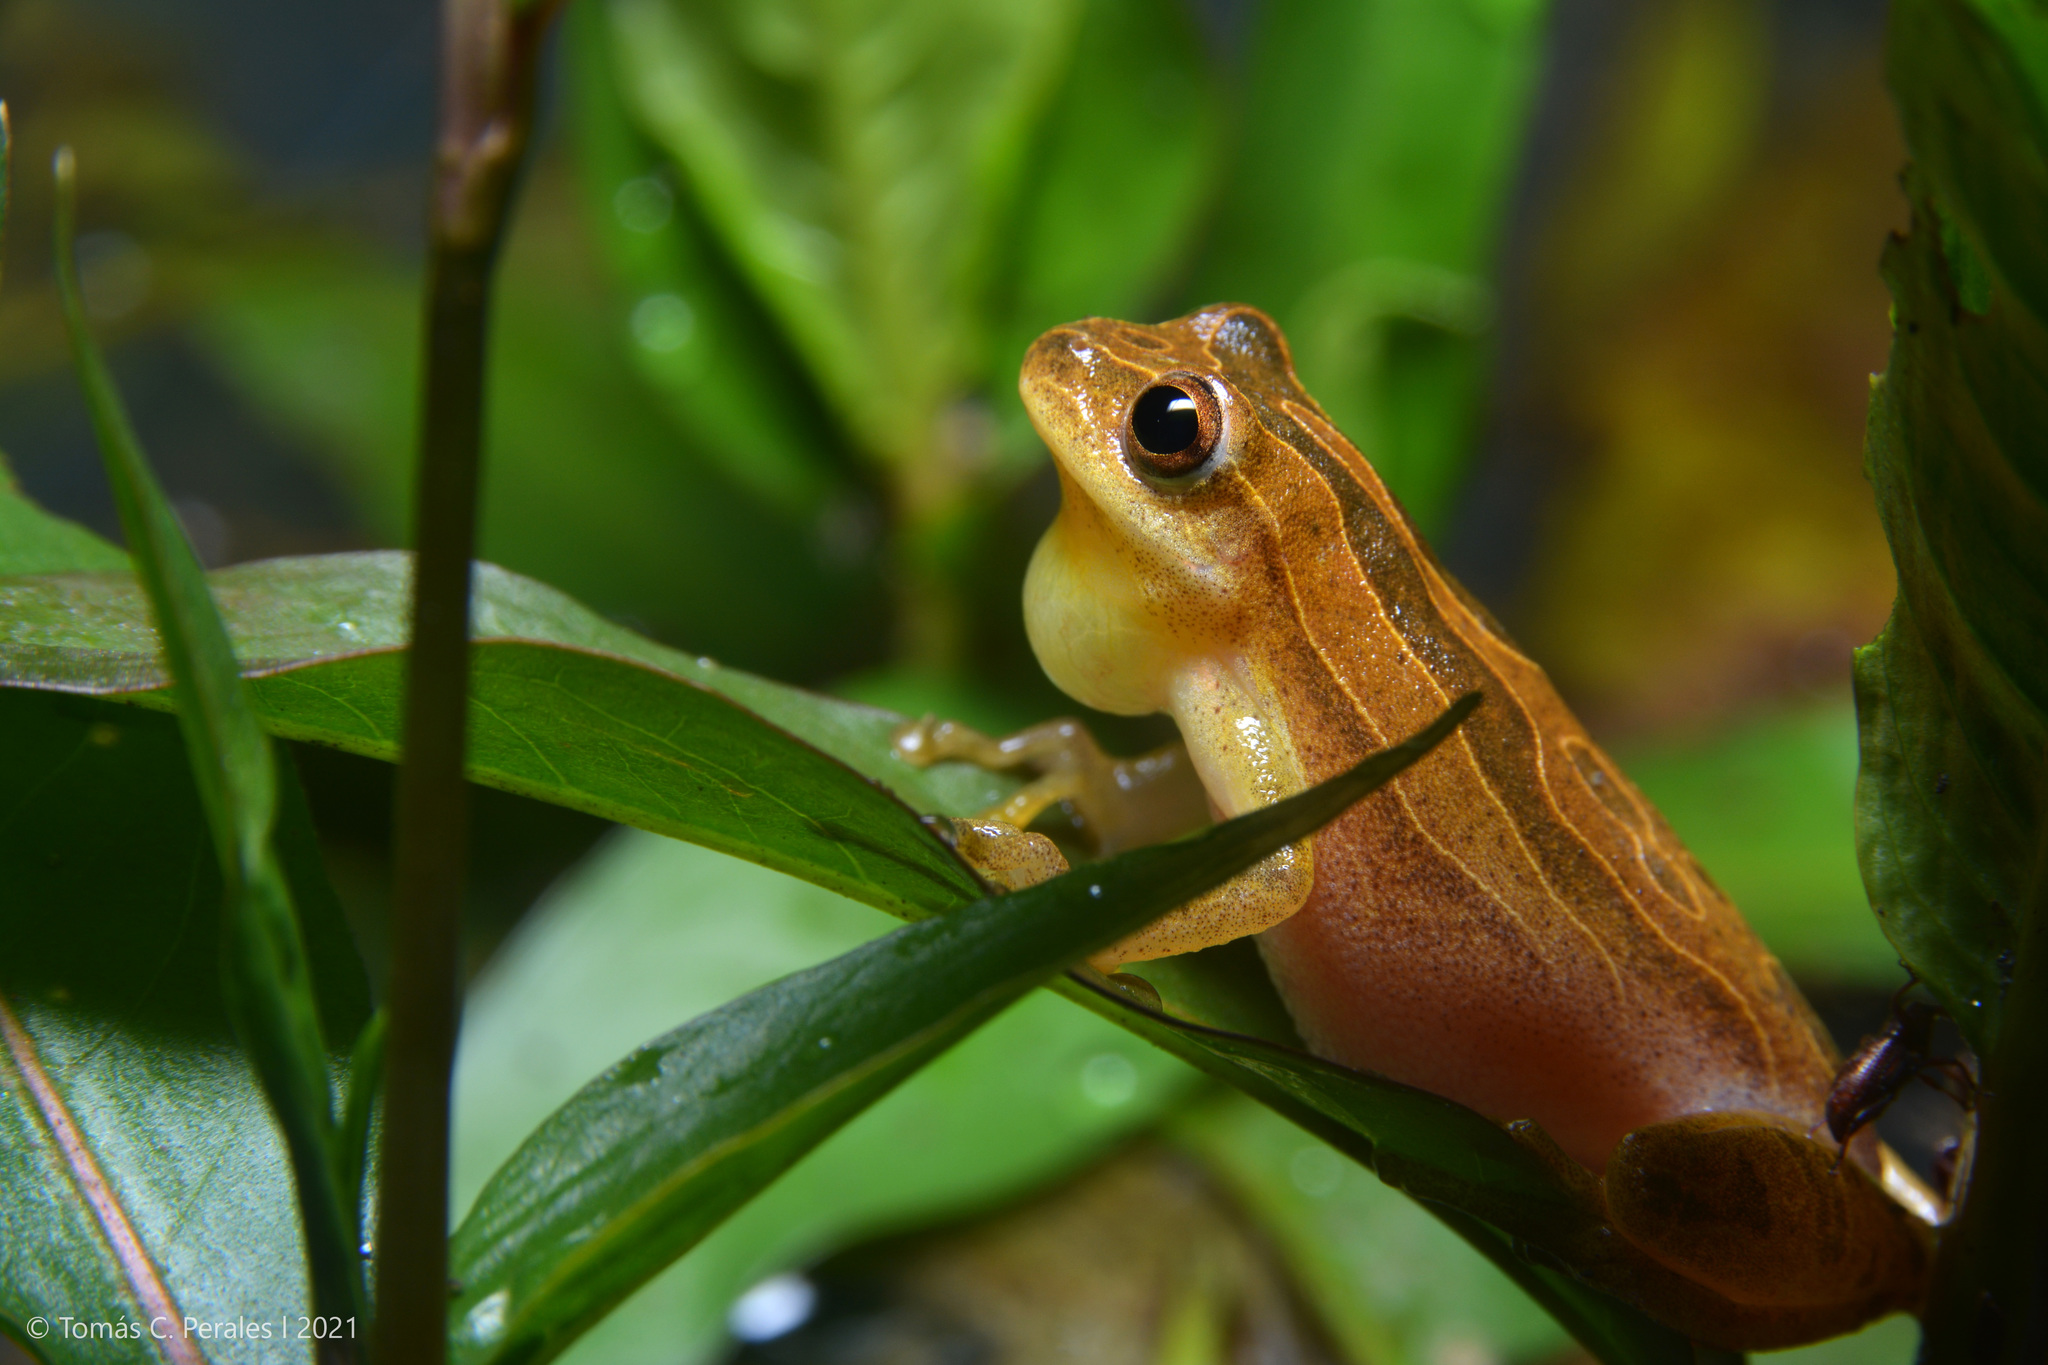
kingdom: Animalia
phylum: Chordata
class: Amphibia
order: Anura
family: Hylidae
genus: Dendropsophus
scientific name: Dendropsophus minutus
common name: Lesser treefrog
